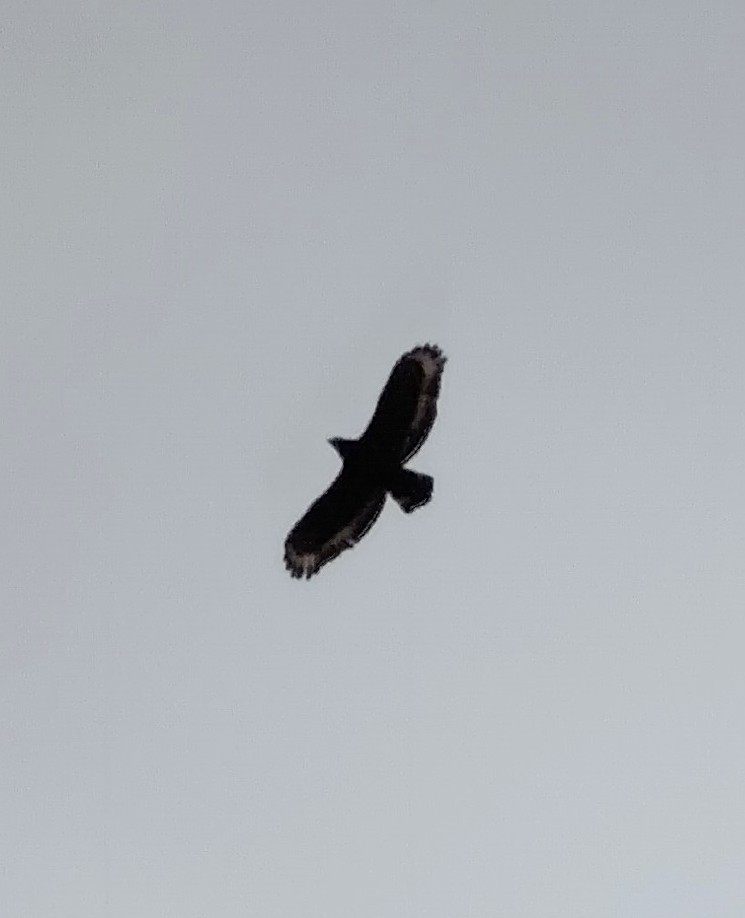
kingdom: Animalia
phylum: Chordata
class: Aves
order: Accipitriformes
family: Accipitridae
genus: Spilornis
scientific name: Spilornis cheela
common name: Crested serpent eagle
